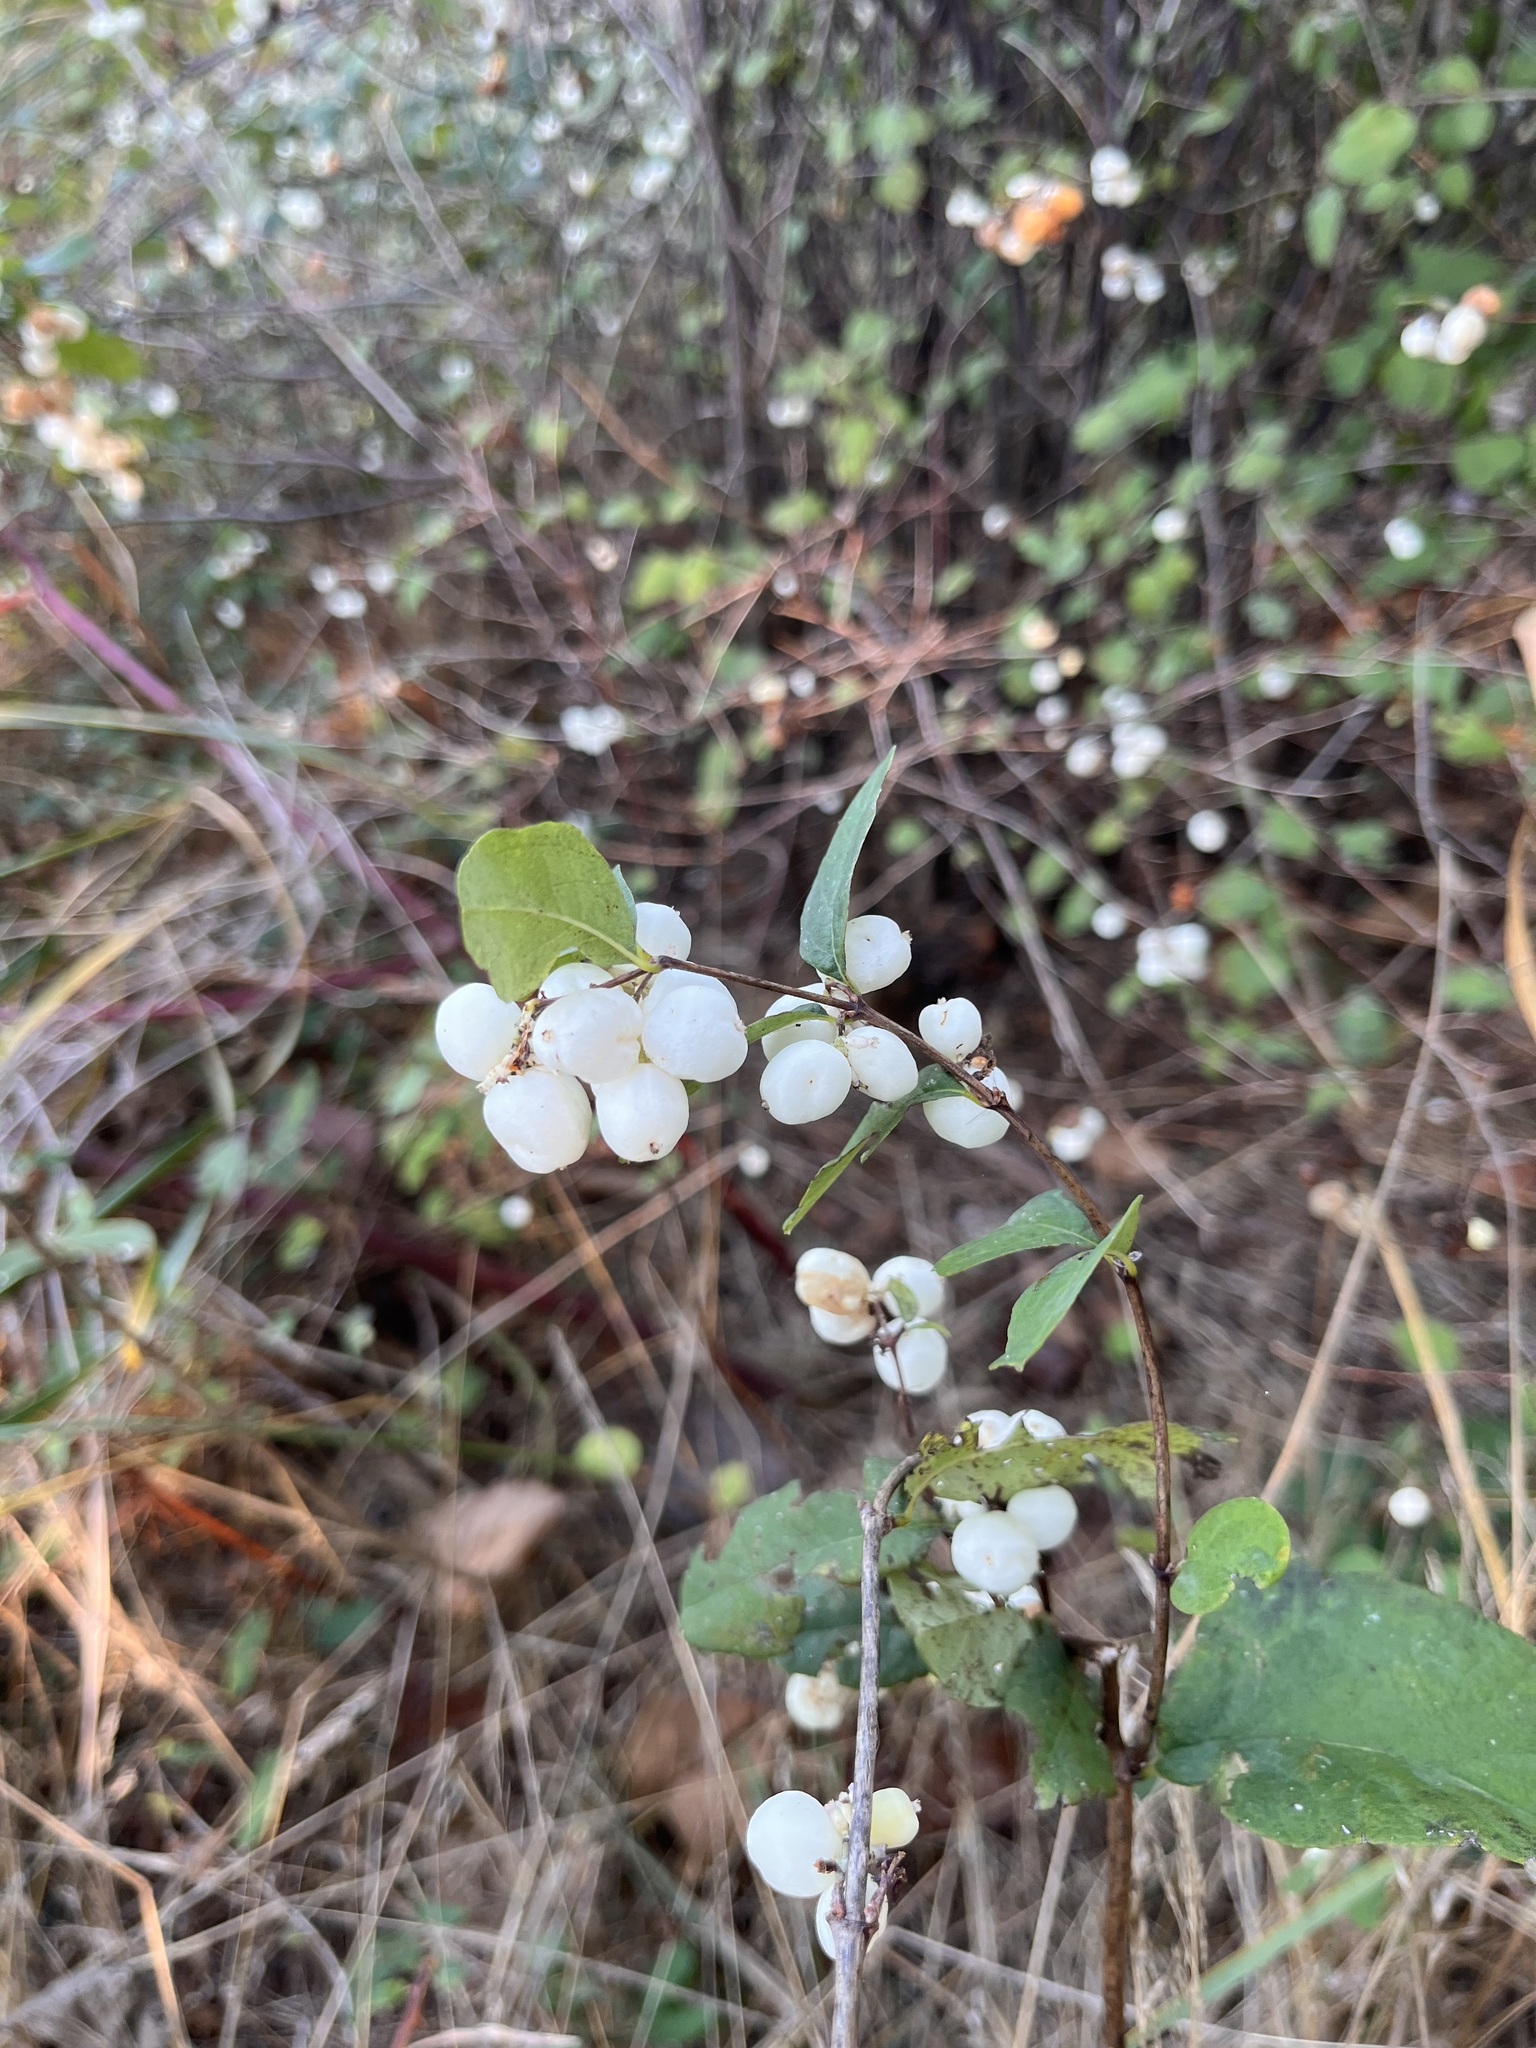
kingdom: Plantae
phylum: Tracheophyta
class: Magnoliopsida
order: Dipsacales
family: Caprifoliaceae
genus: Symphoricarpos
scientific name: Symphoricarpos albus
